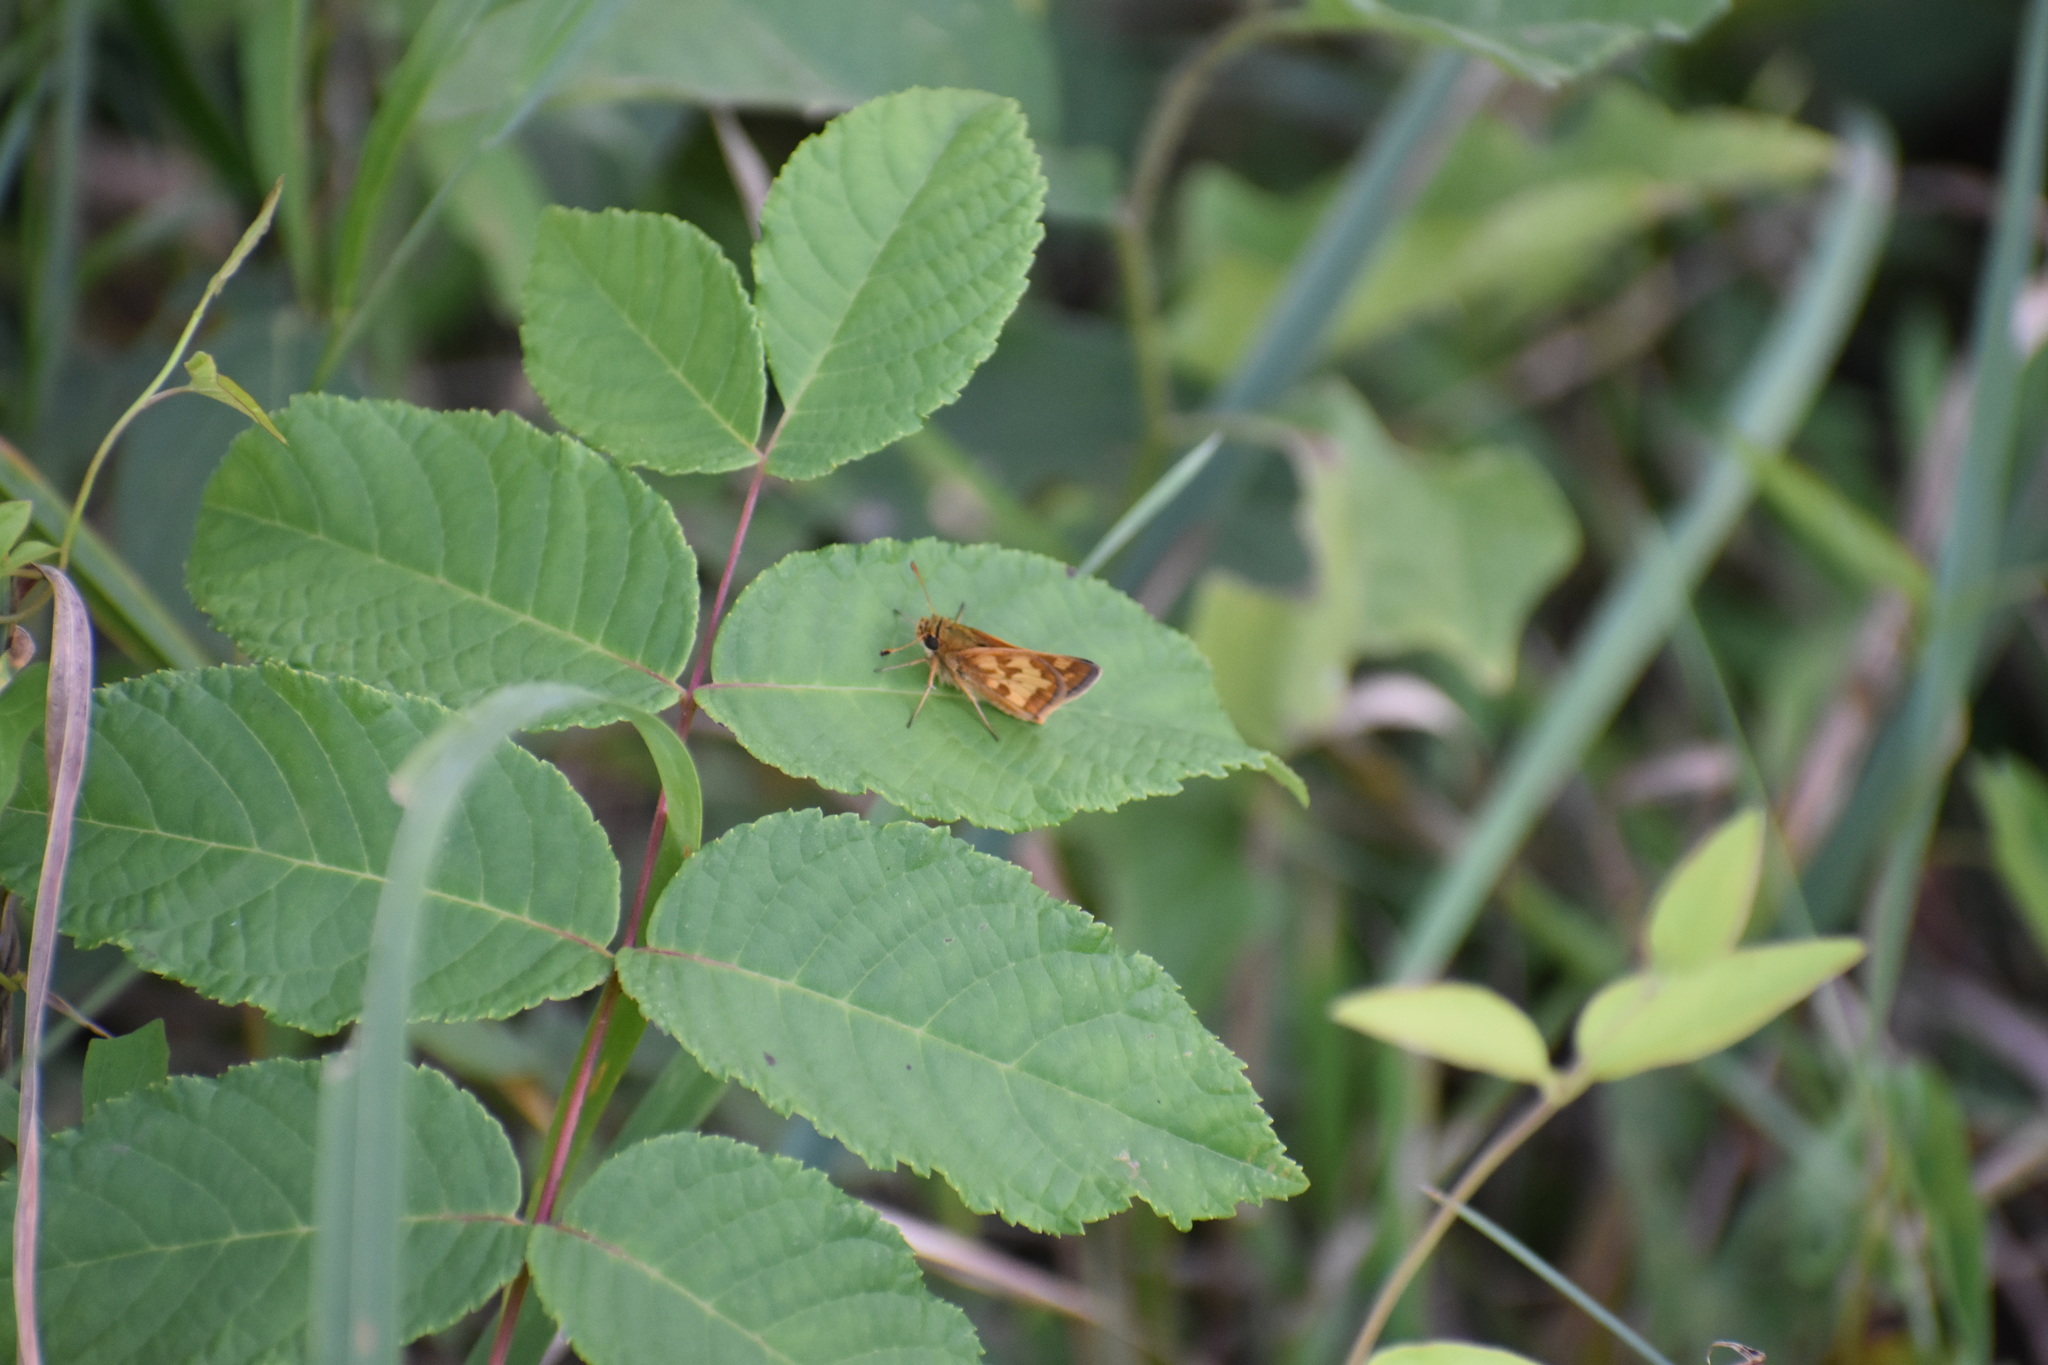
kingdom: Animalia
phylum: Arthropoda
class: Insecta
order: Lepidoptera
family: Hesperiidae
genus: Polites
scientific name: Polites coras
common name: Peck's skipper
